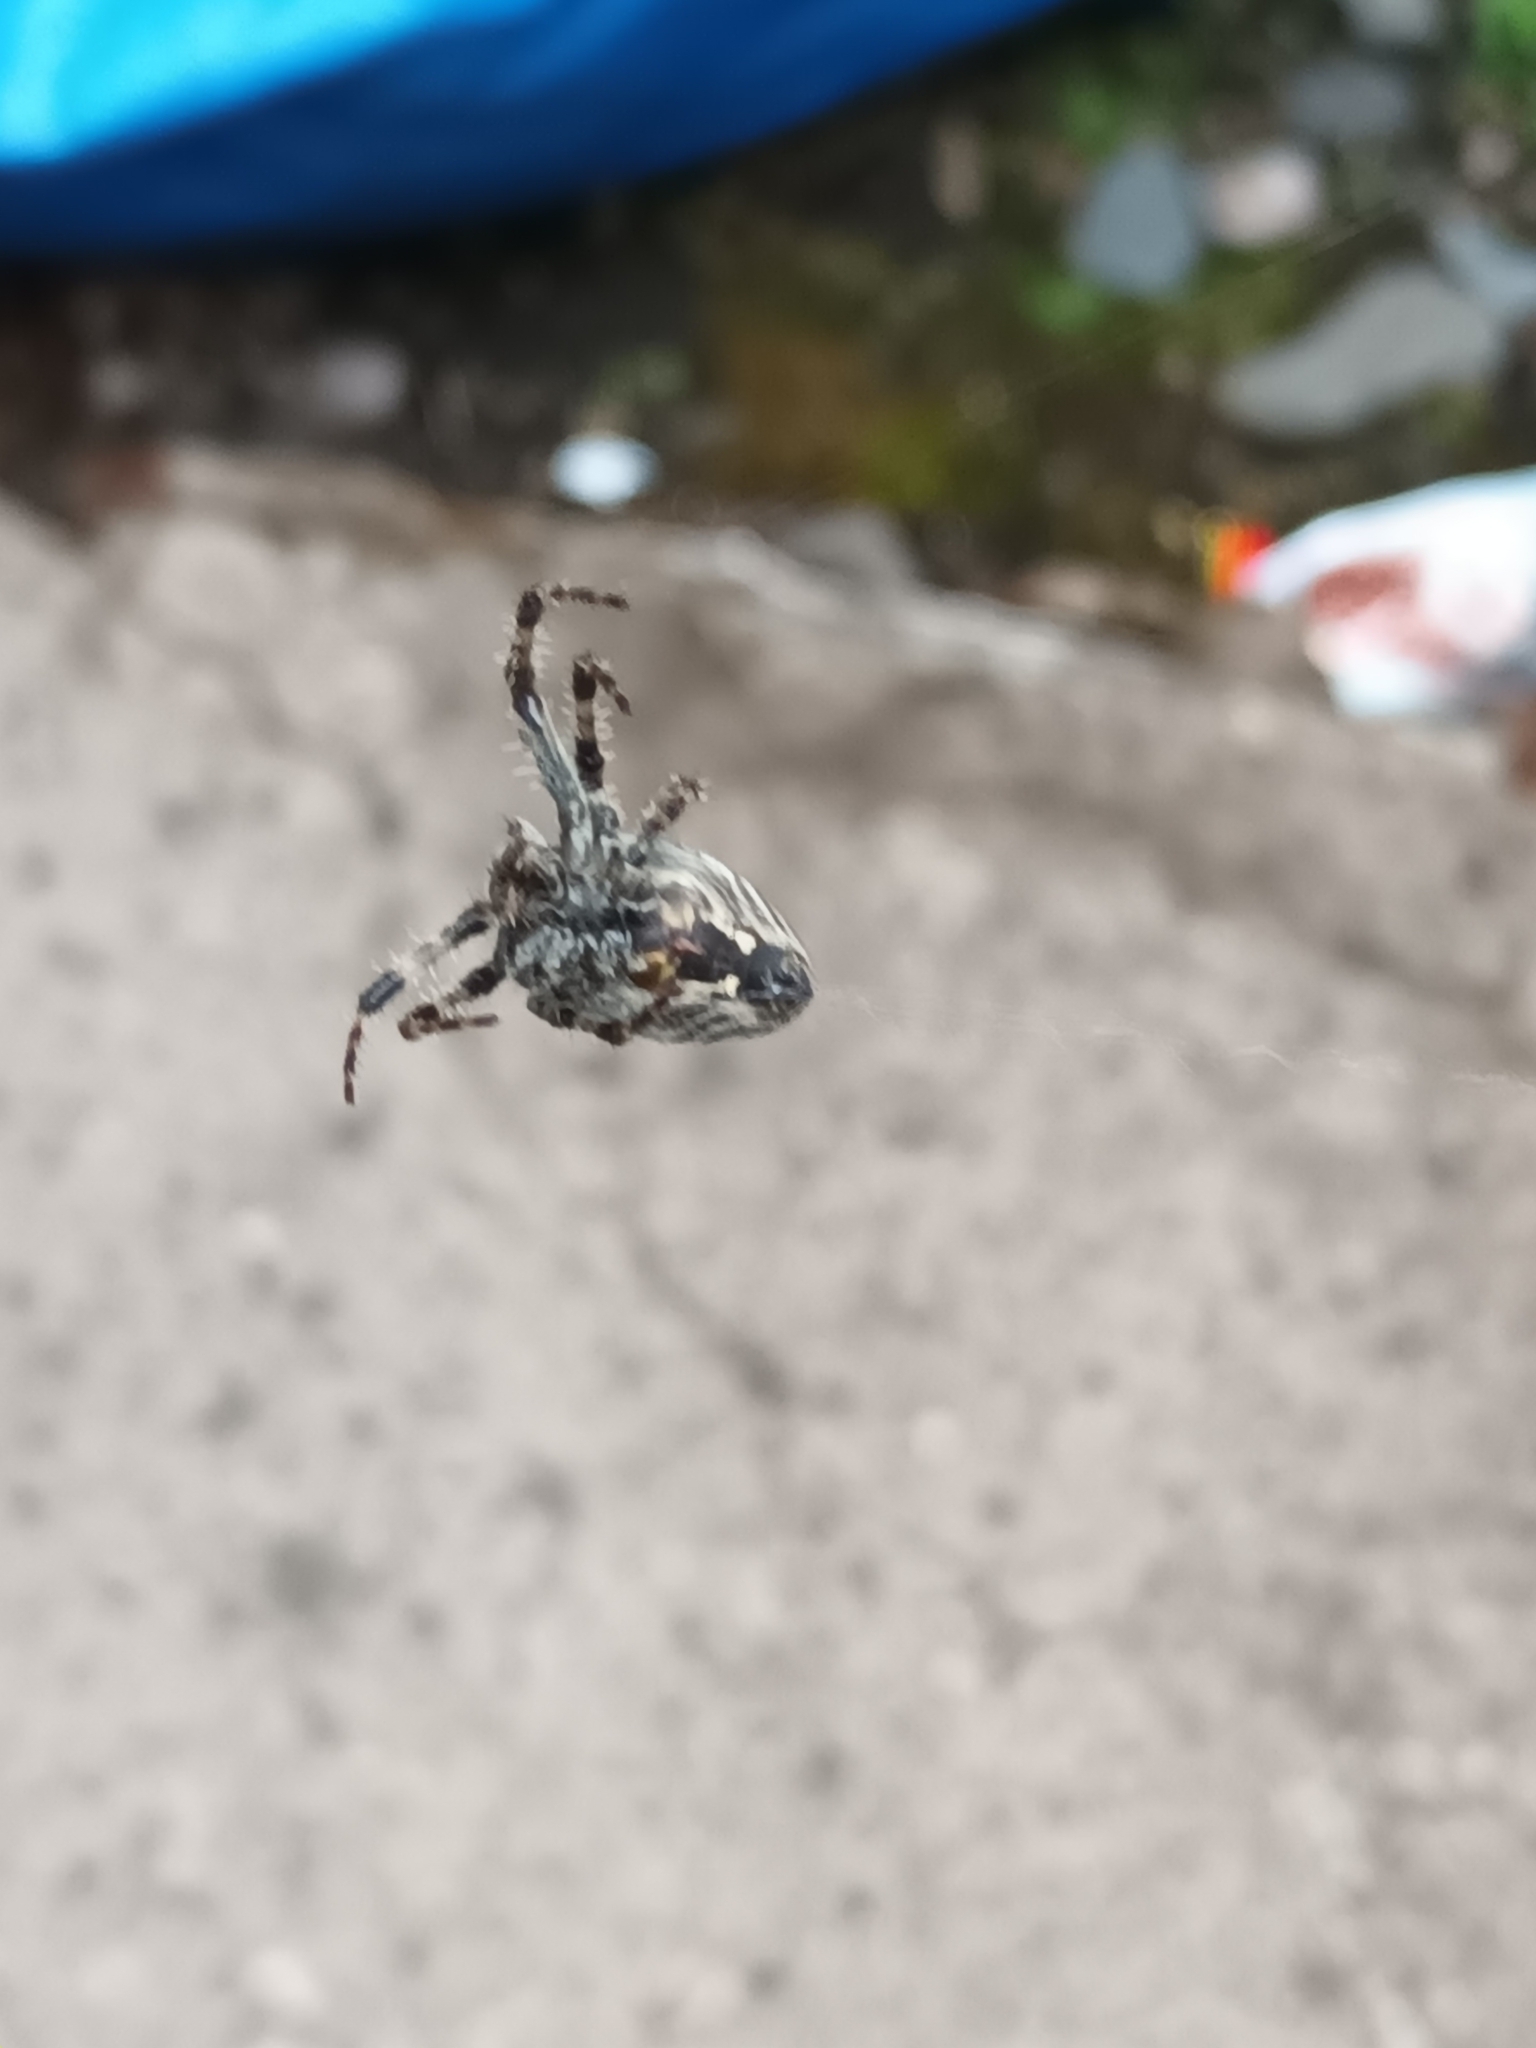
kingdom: Animalia
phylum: Arthropoda
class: Arachnida
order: Araneae
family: Araneidae
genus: Araneus
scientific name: Araneus diadematus
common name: Cross orbweaver
